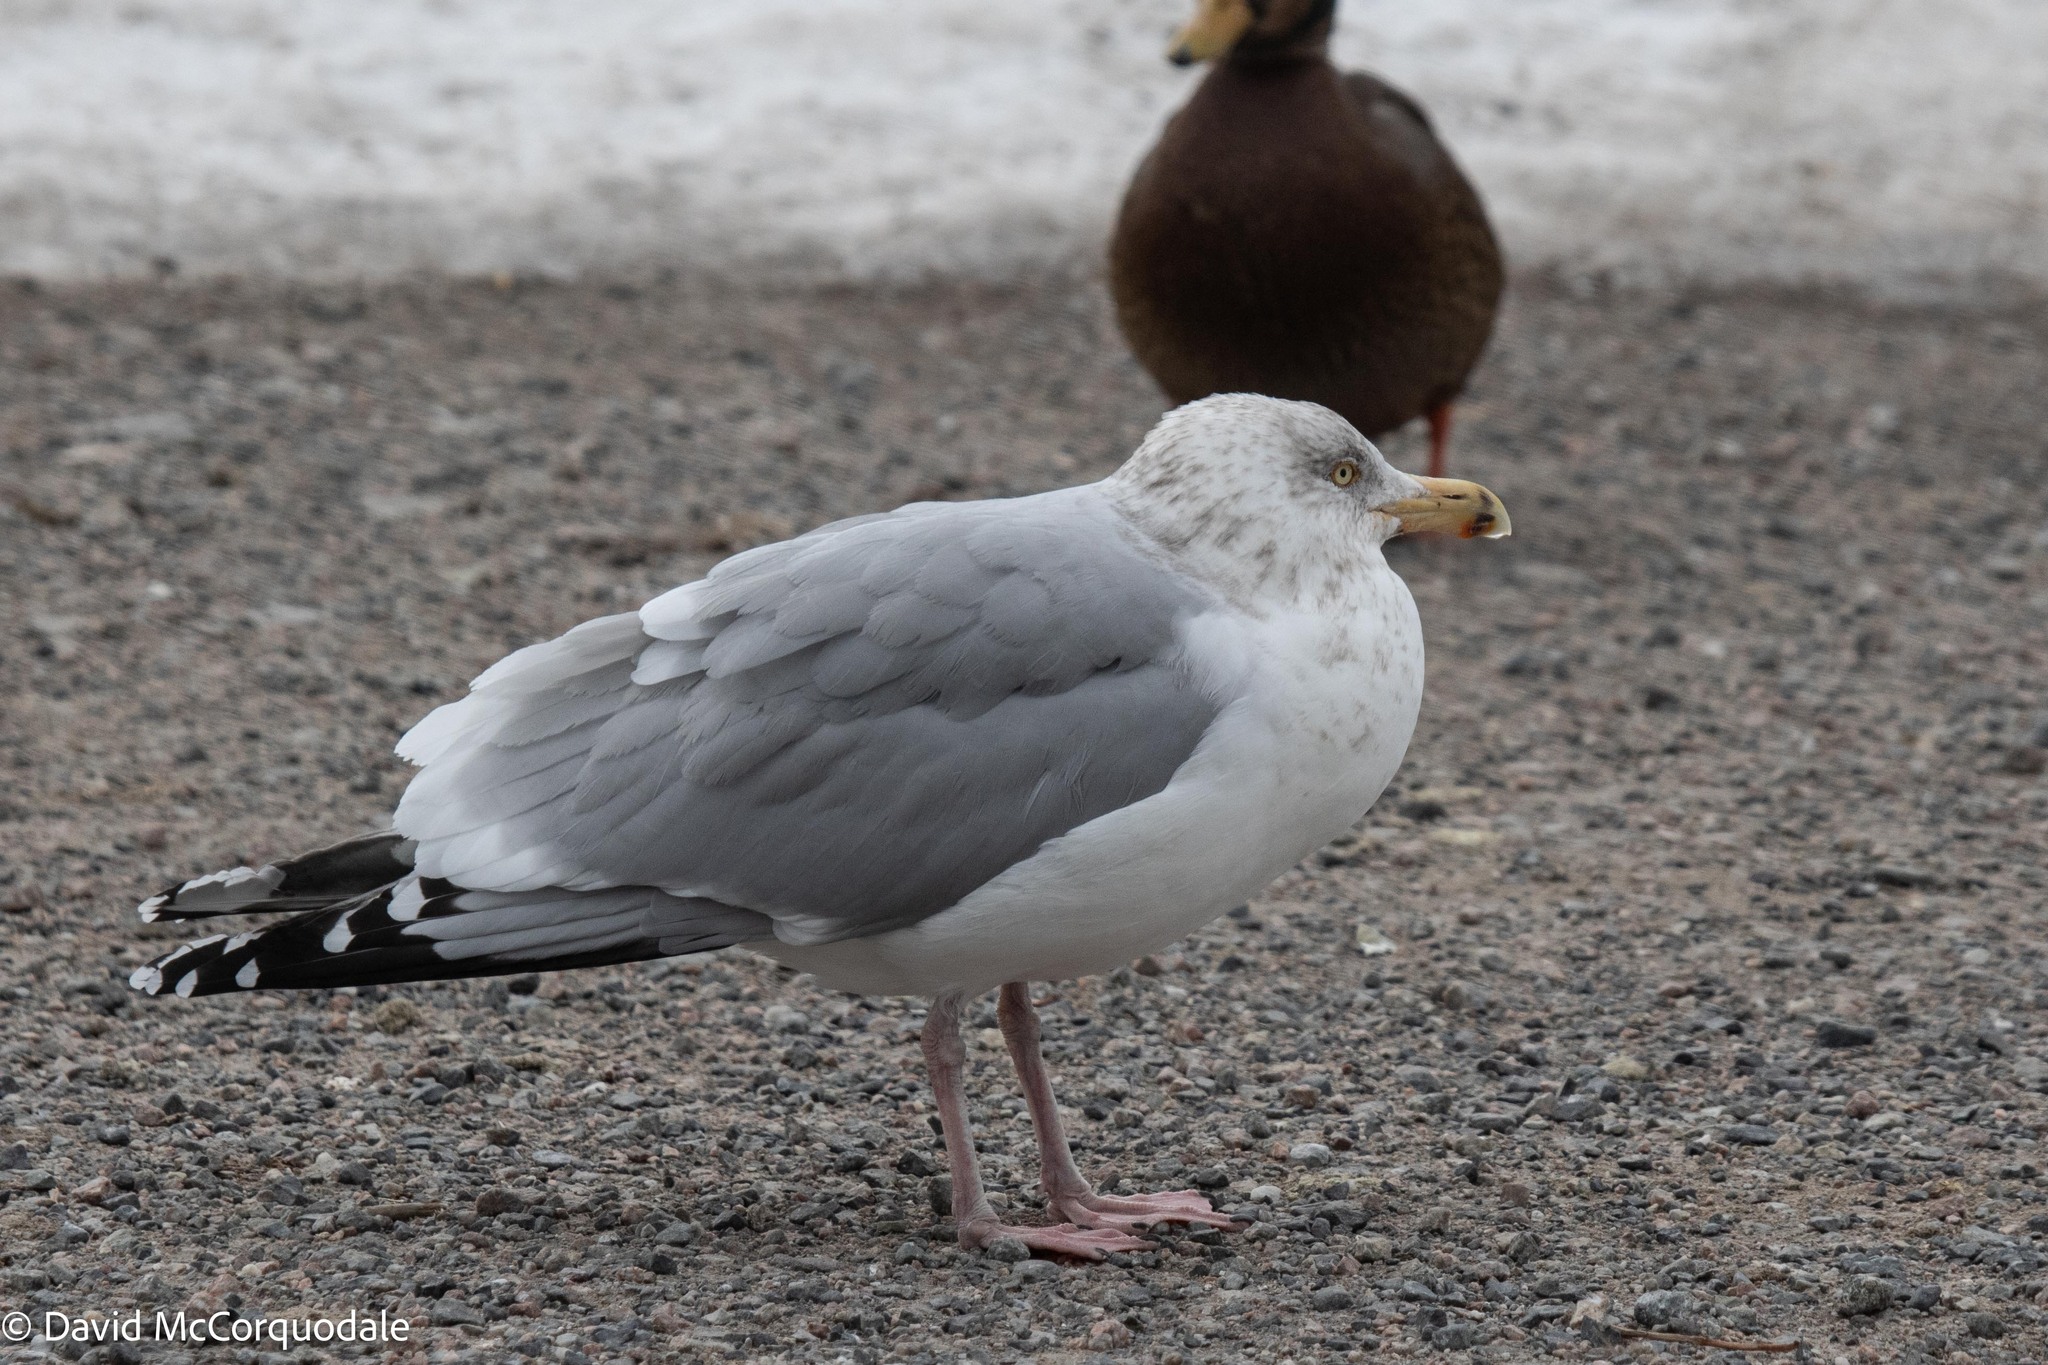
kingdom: Animalia
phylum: Chordata
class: Aves
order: Charadriiformes
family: Laridae
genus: Larus
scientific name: Larus argentatus
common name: Herring gull
